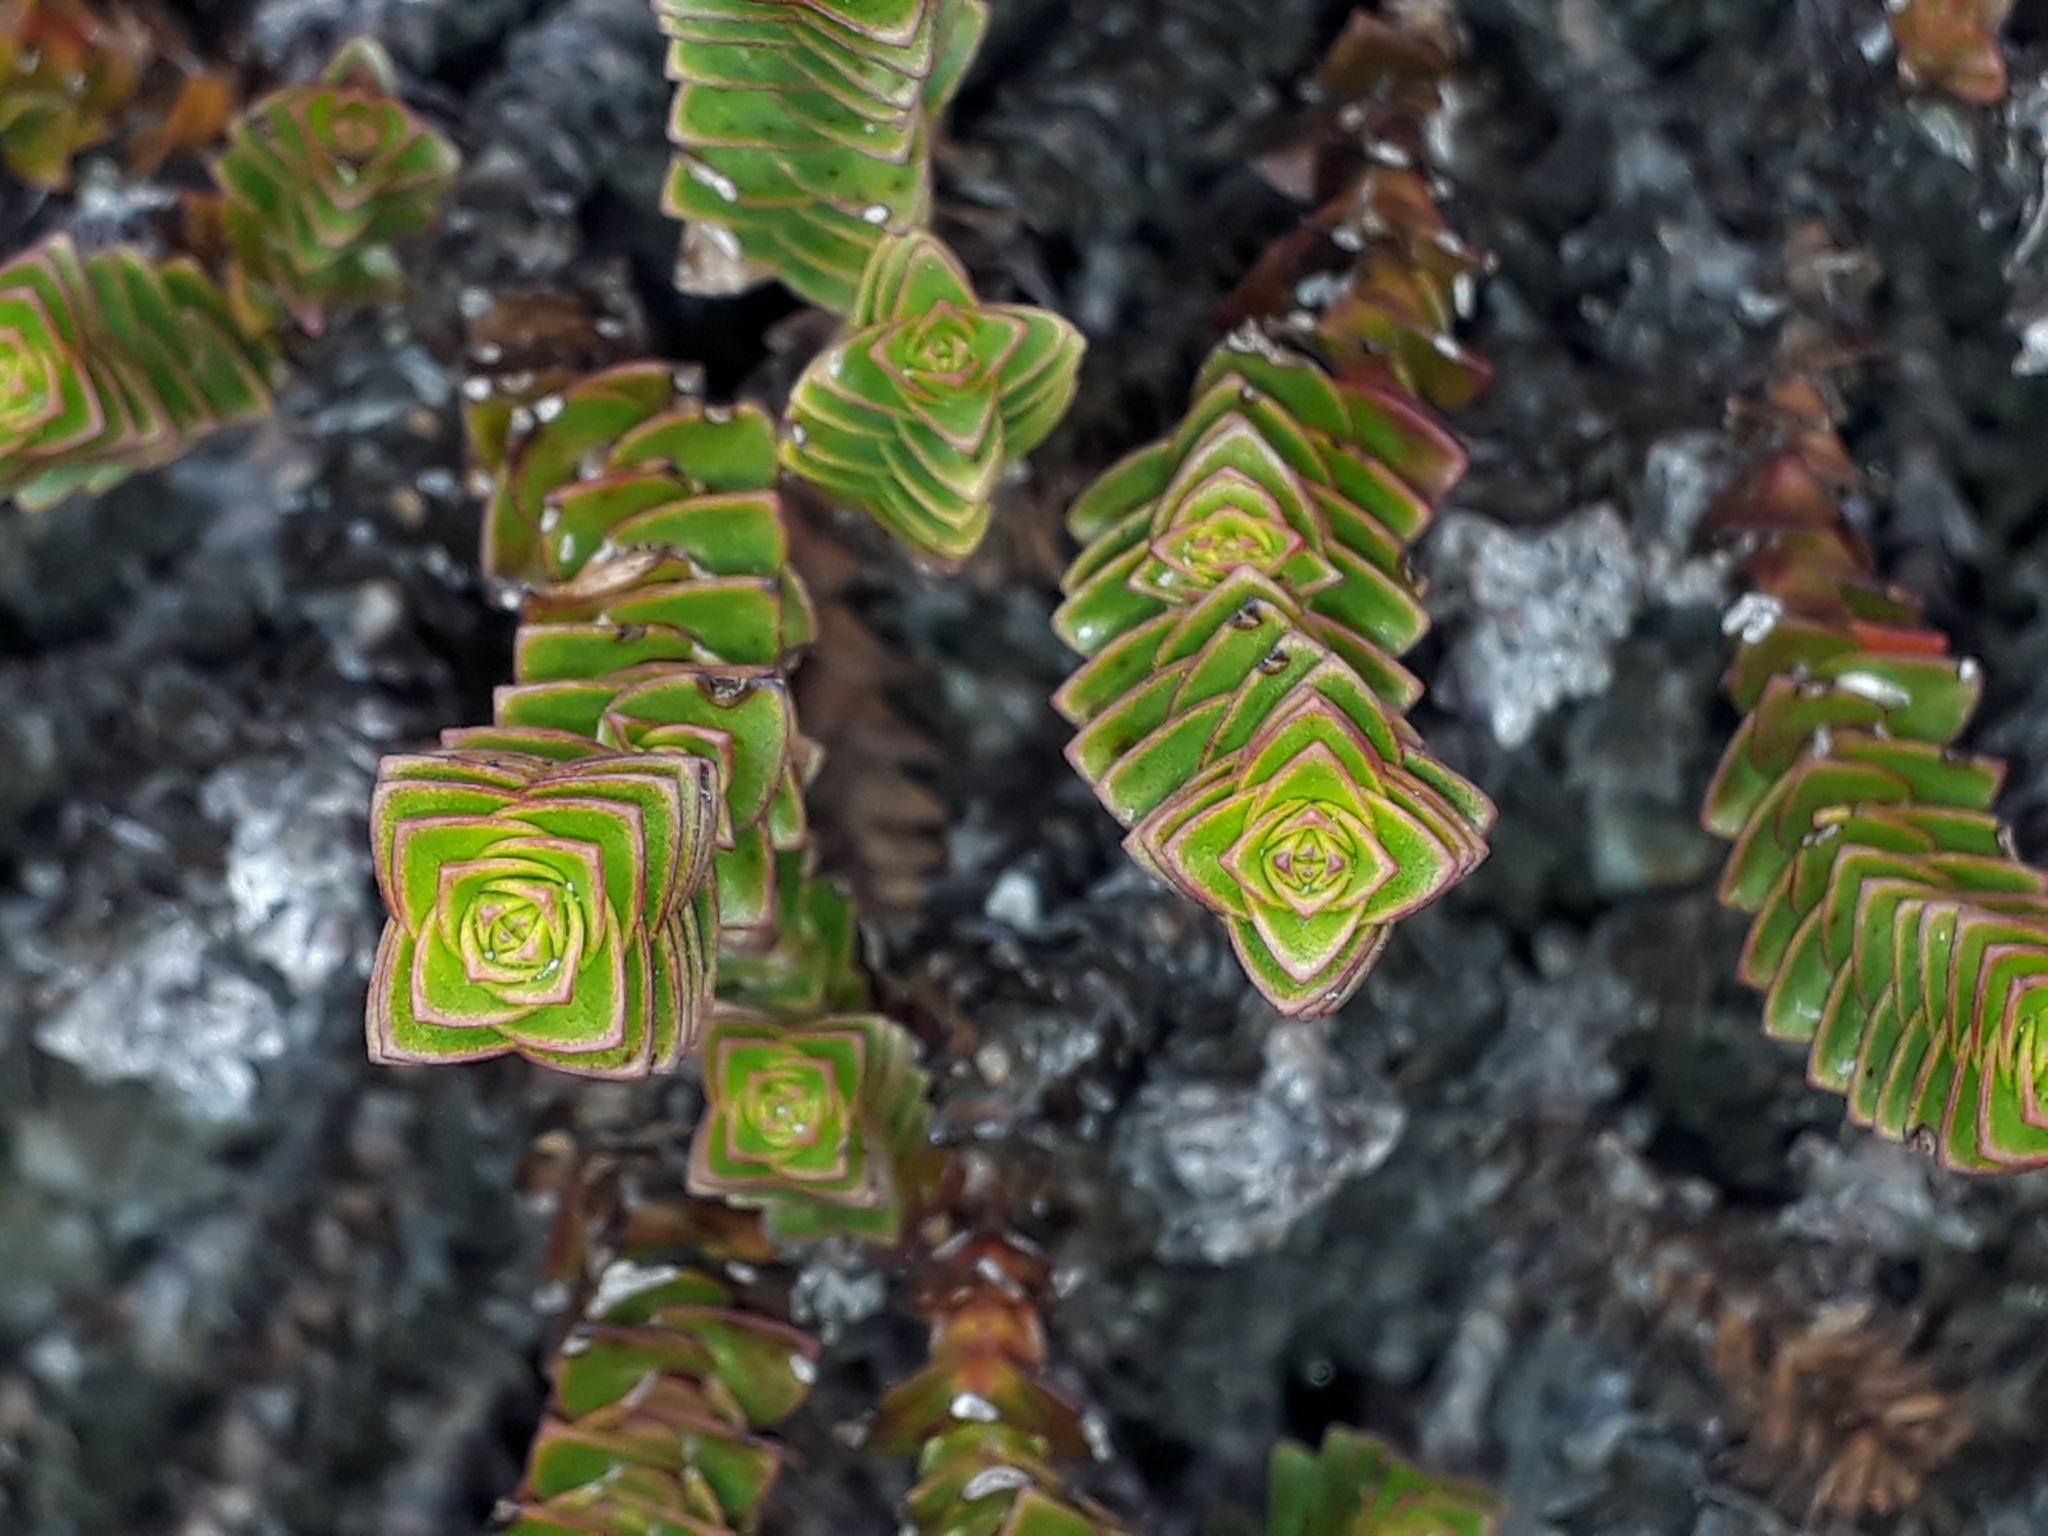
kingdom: Plantae
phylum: Tracheophyta
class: Magnoliopsida
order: Lamiales
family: Plantaginaceae
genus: Veronica
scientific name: Veronica epacridea
